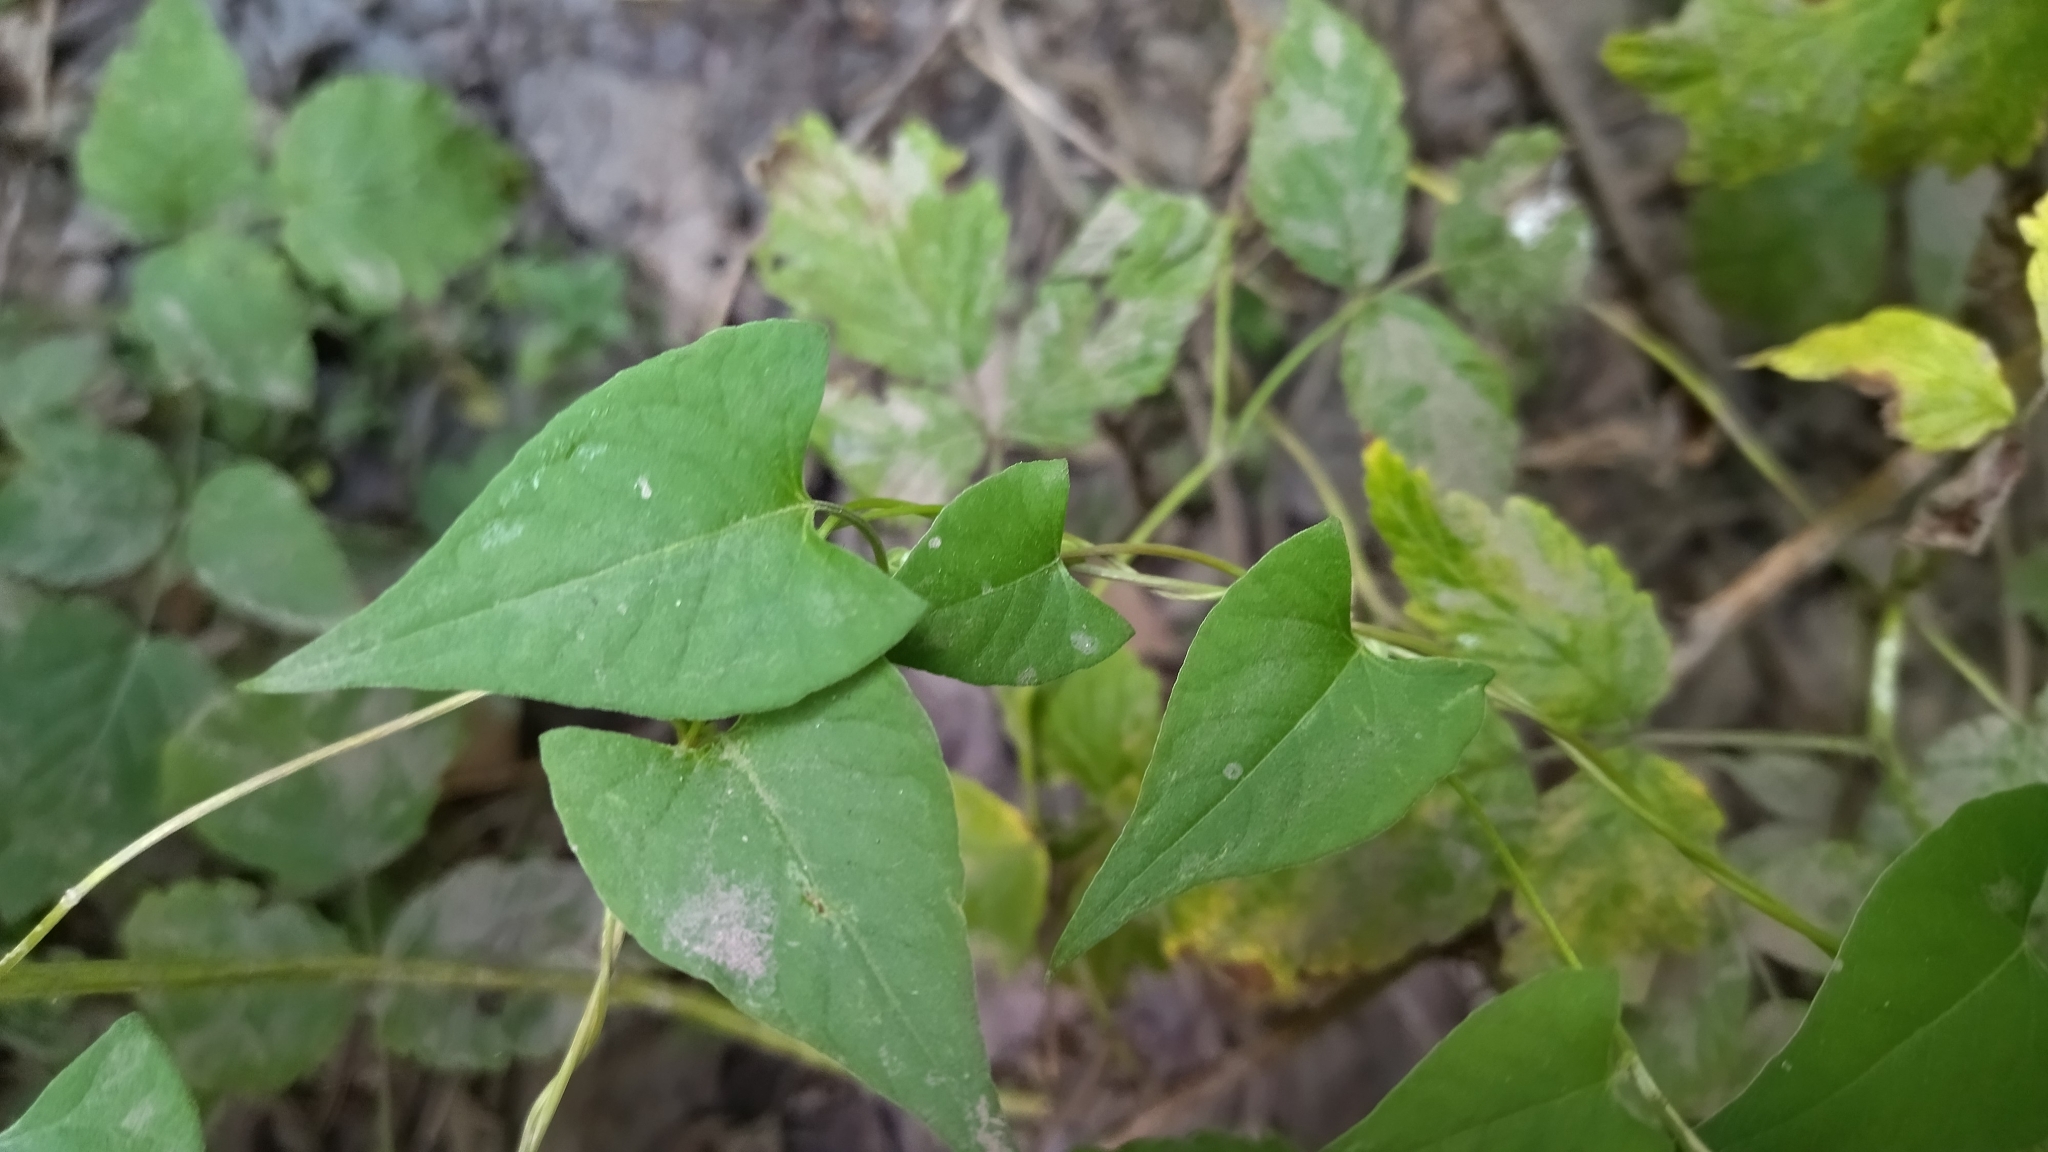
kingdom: Plantae
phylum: Tracheophyta
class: Magnoliopsida
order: Caryophyllales
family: Polygonaceae
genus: Fallopia
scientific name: Fallopia convolvulus
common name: Black bindweed
